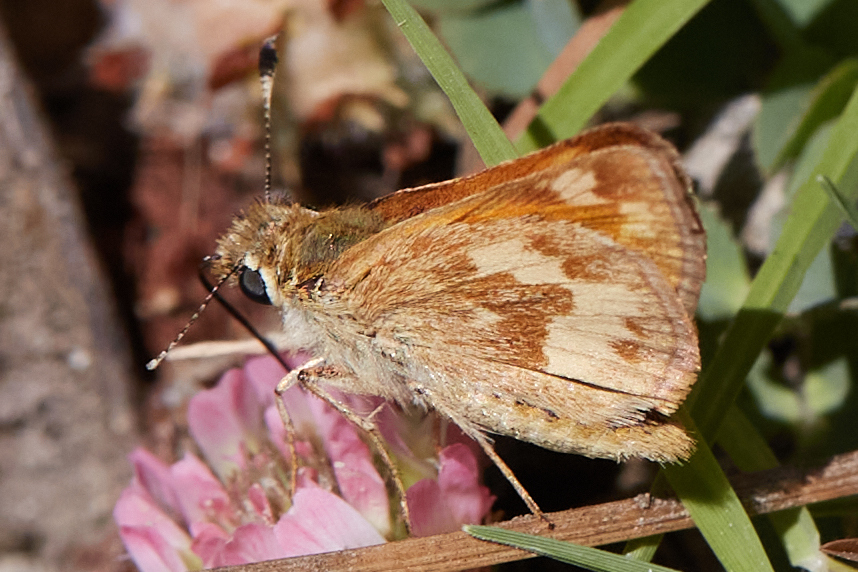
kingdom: Animalia
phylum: Arthropoda
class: Insecta
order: Lepidoptera
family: Hesperiidae
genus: Ochlodes
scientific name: Ochlodes sylvanoides
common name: Woodland skipper
